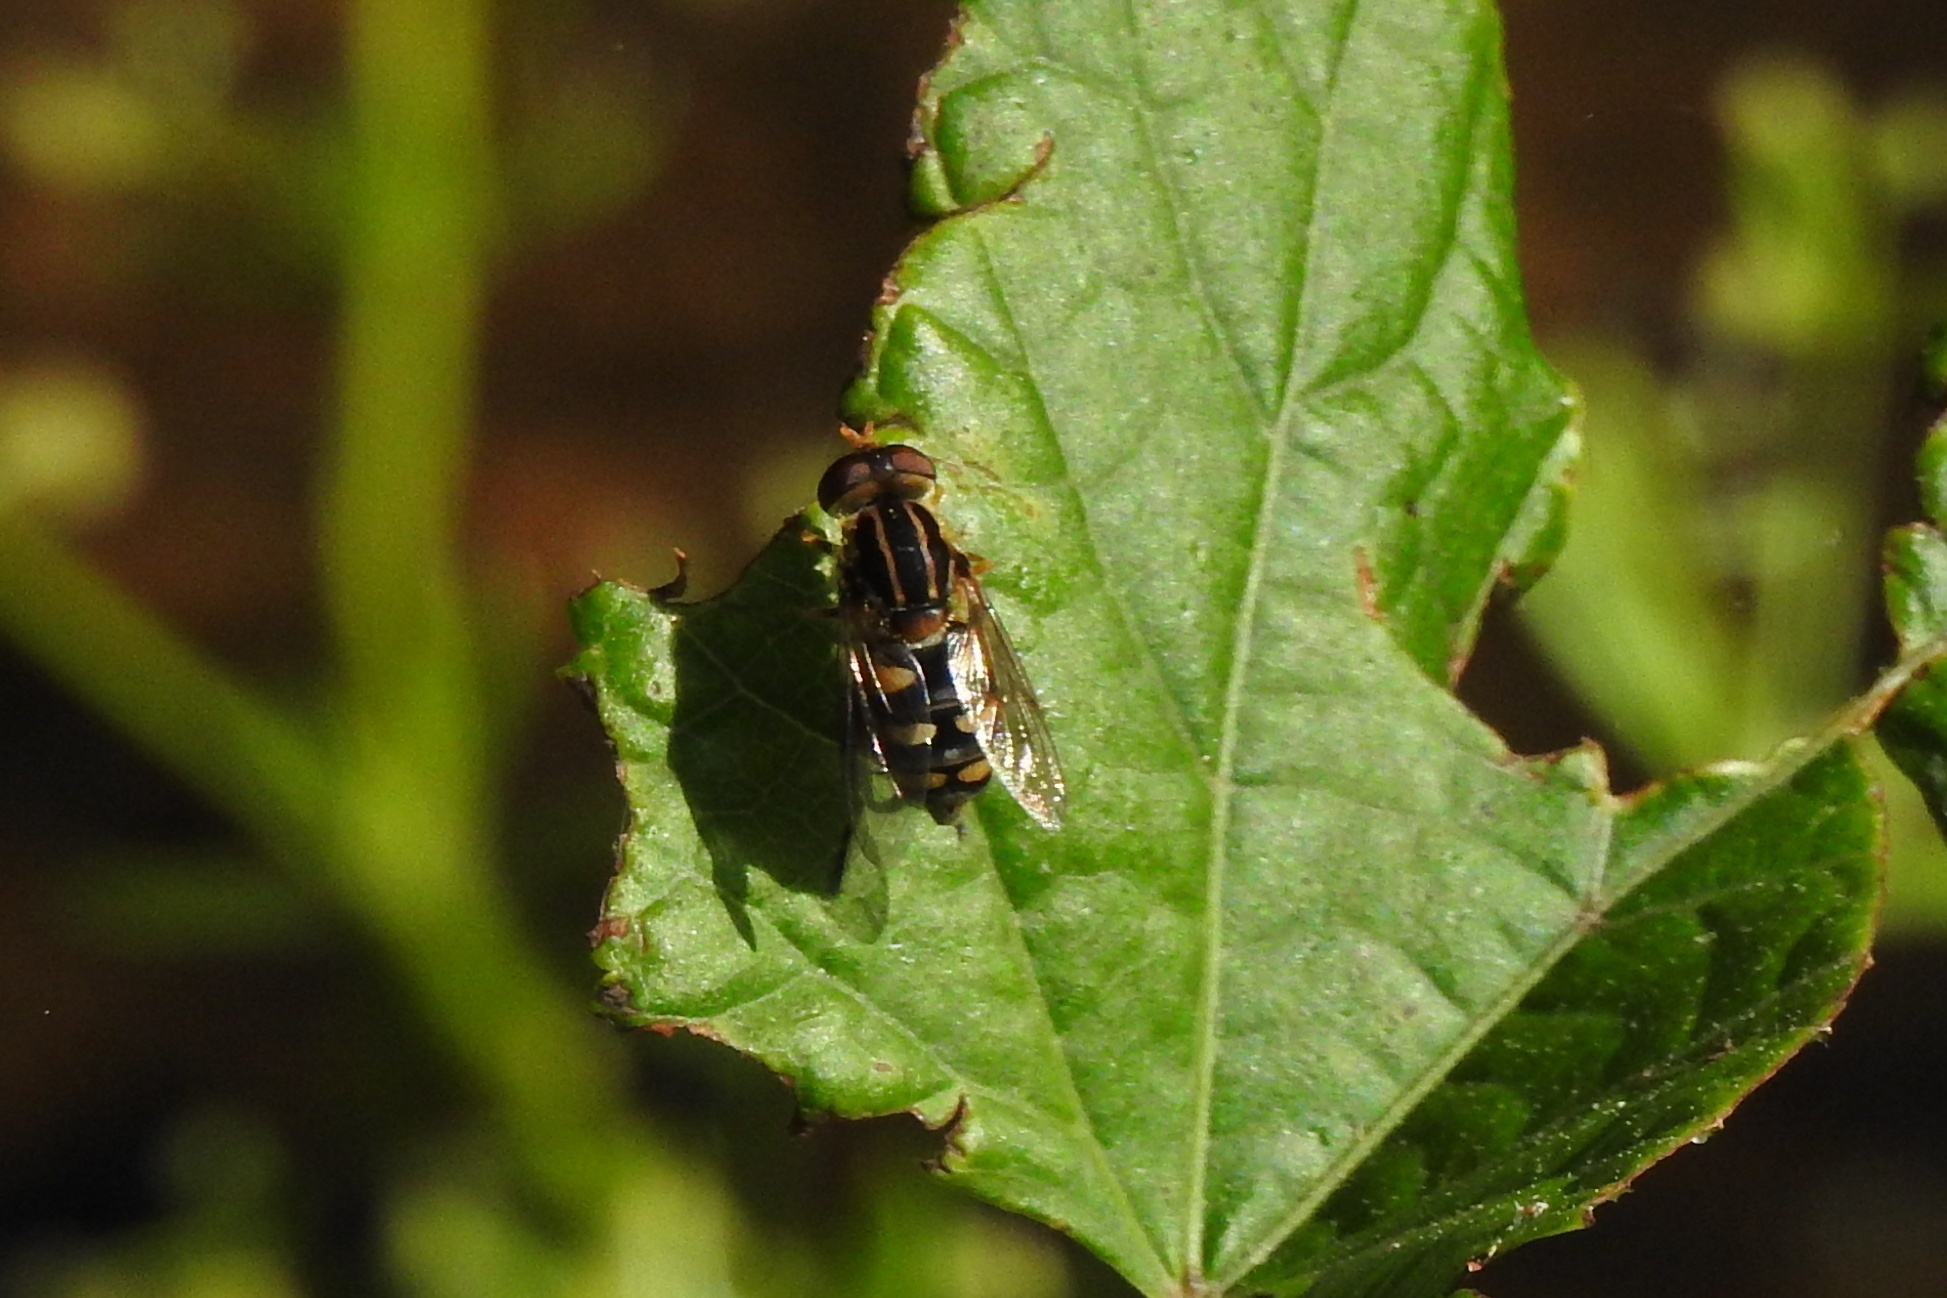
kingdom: Animalia
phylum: Arthropoda
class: Insecta
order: Diptera
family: Syrphidae
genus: Parhelophilus
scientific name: Parhelophilus flavifacies
